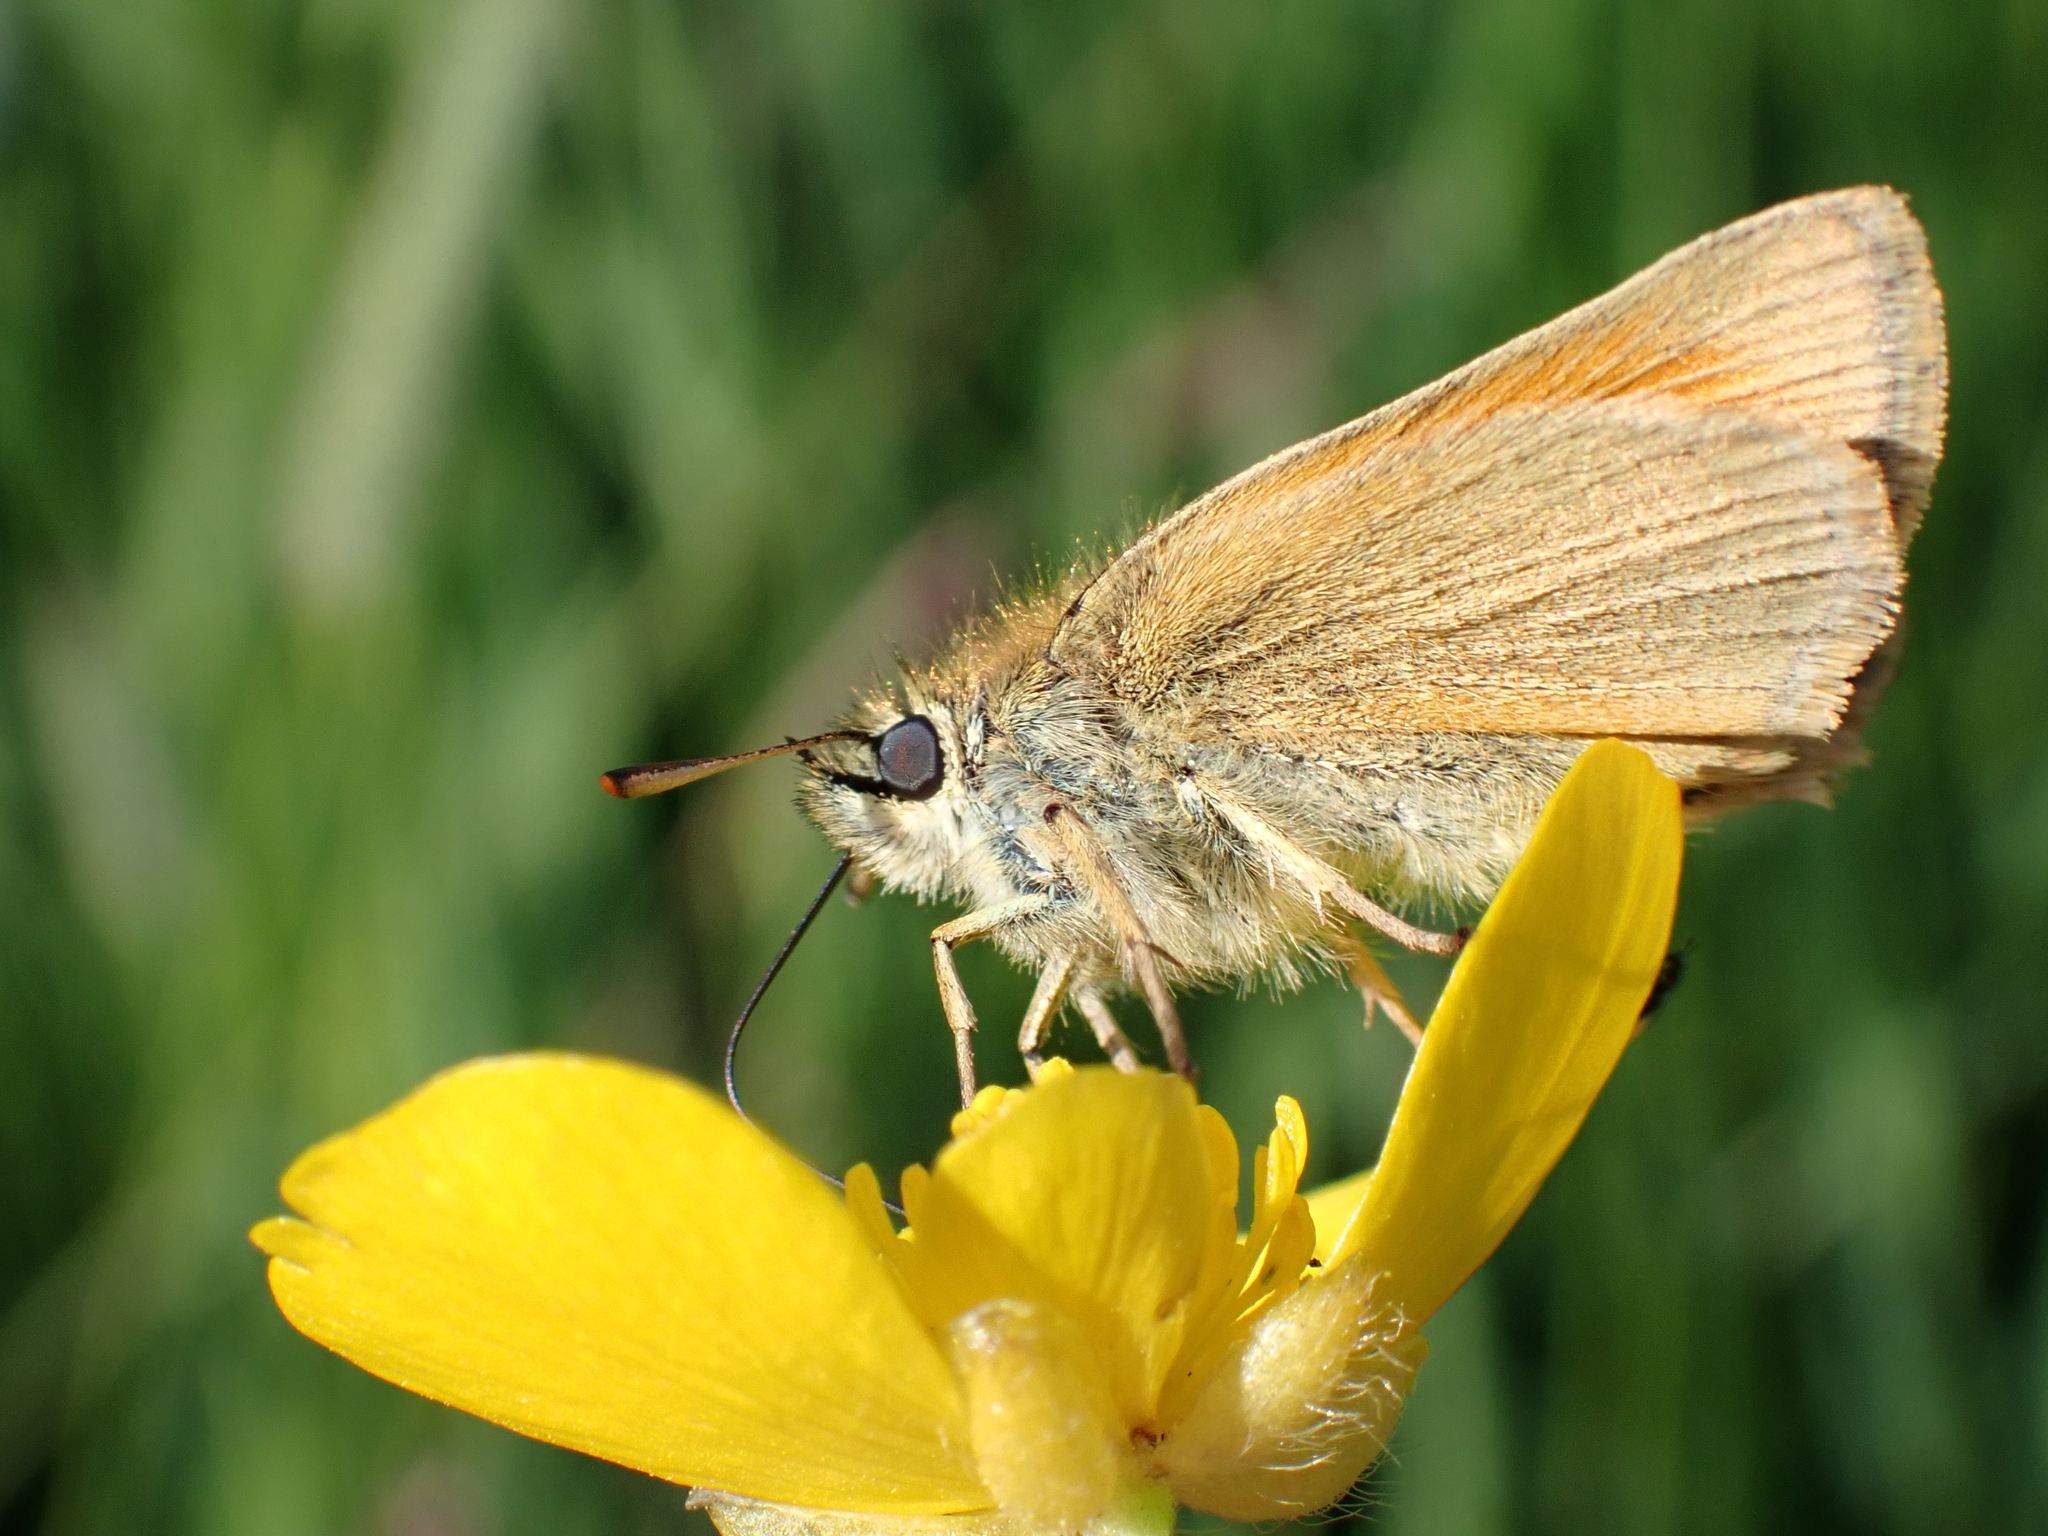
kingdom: Animalia
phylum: Arthropoda
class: Insecta
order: Lepidoptera
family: Hesperiidae
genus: Thymelicus
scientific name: Thymelicus sylvestris
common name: Small skipper
